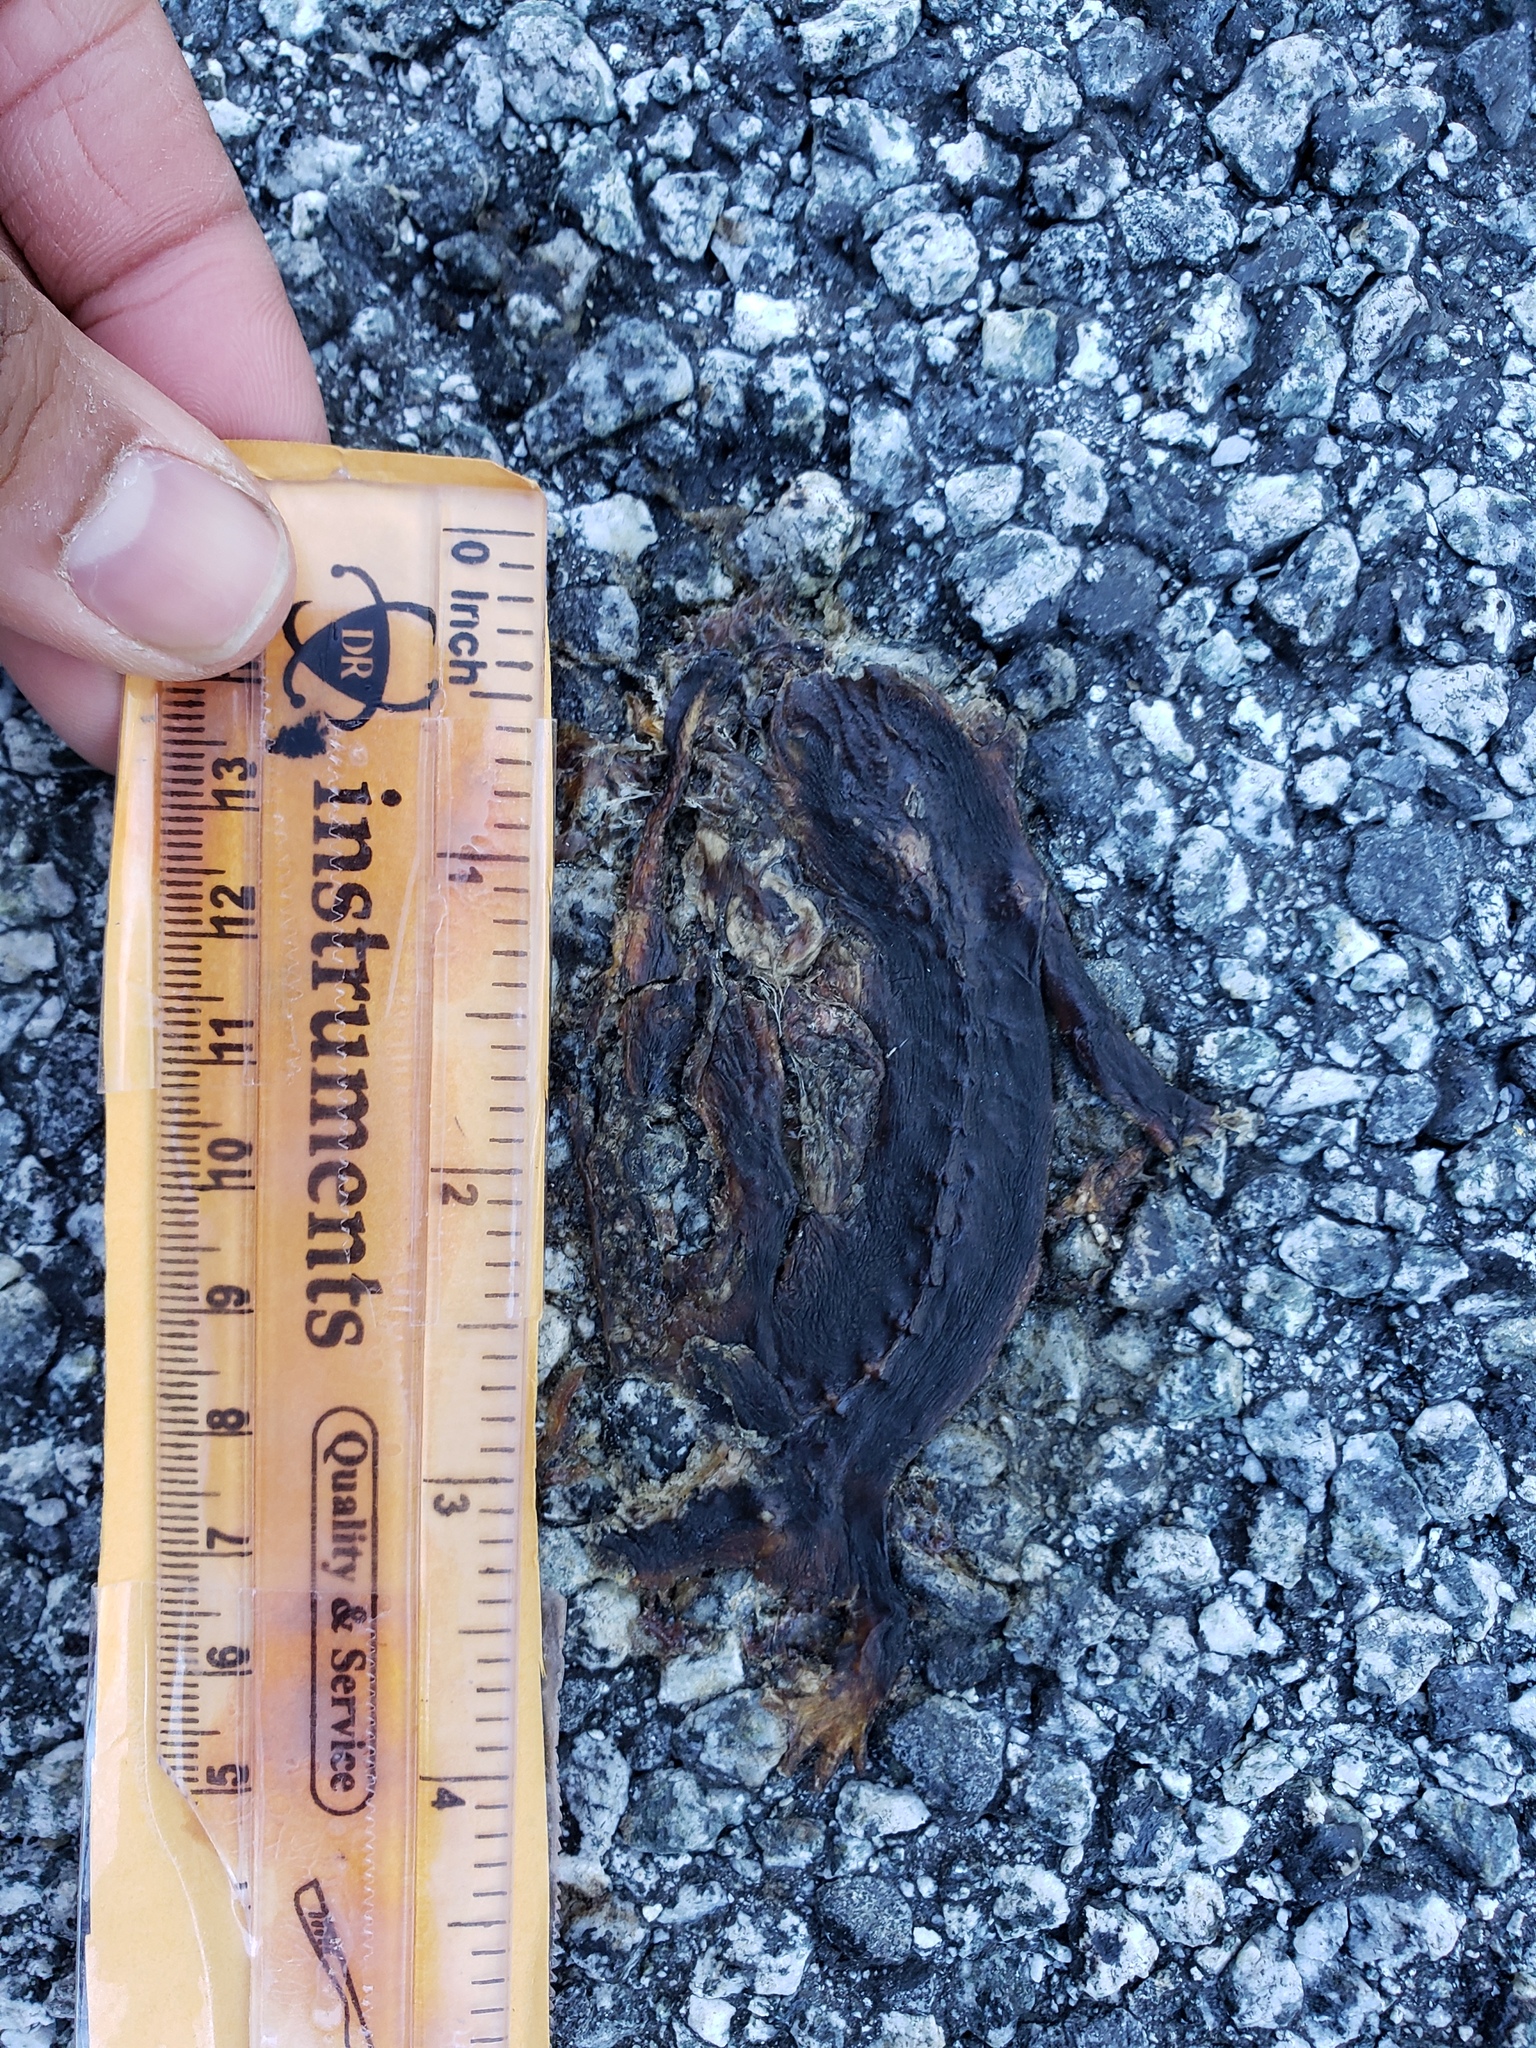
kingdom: Animalia
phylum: Chordata
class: Amphibia
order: Caudata
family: Salamandridae
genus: Taricha
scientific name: Taricha
